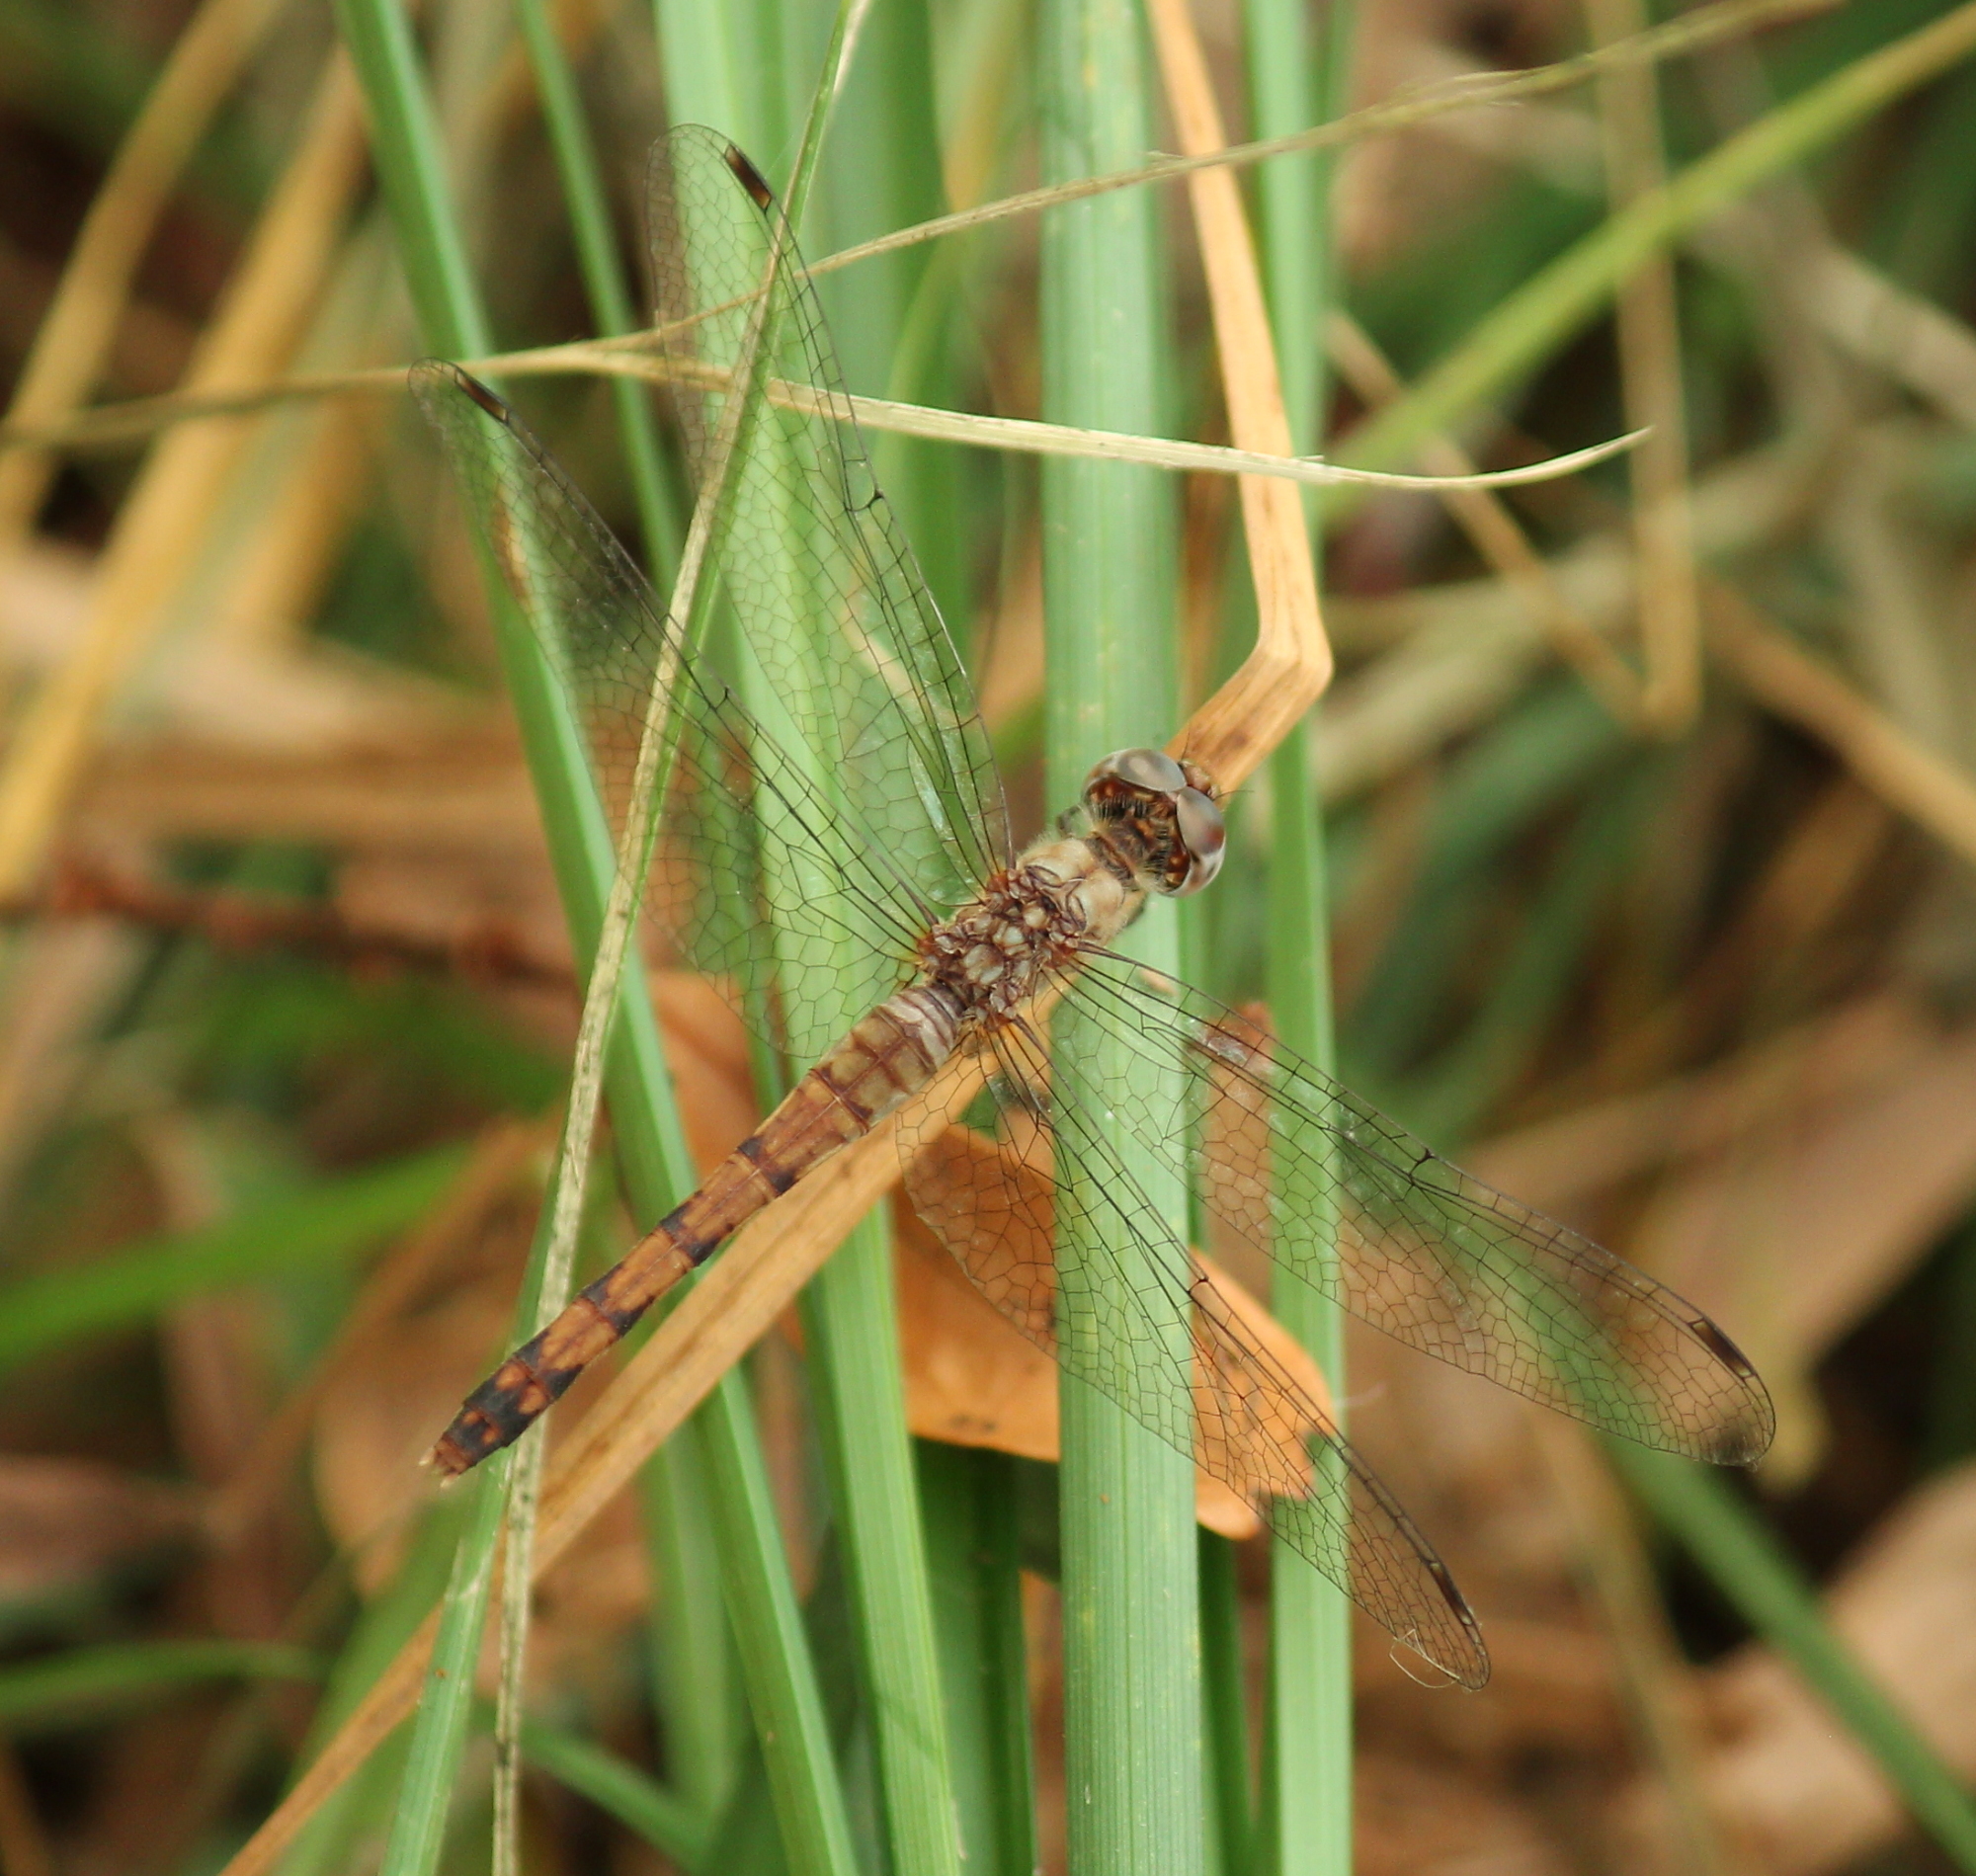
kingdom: Animalia
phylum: Arthropoda
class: Insecta
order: Odonata
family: Libellulidae
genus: Sympetrum
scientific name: Sympetrum ambiguum
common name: Blue-faced meadowhawk
